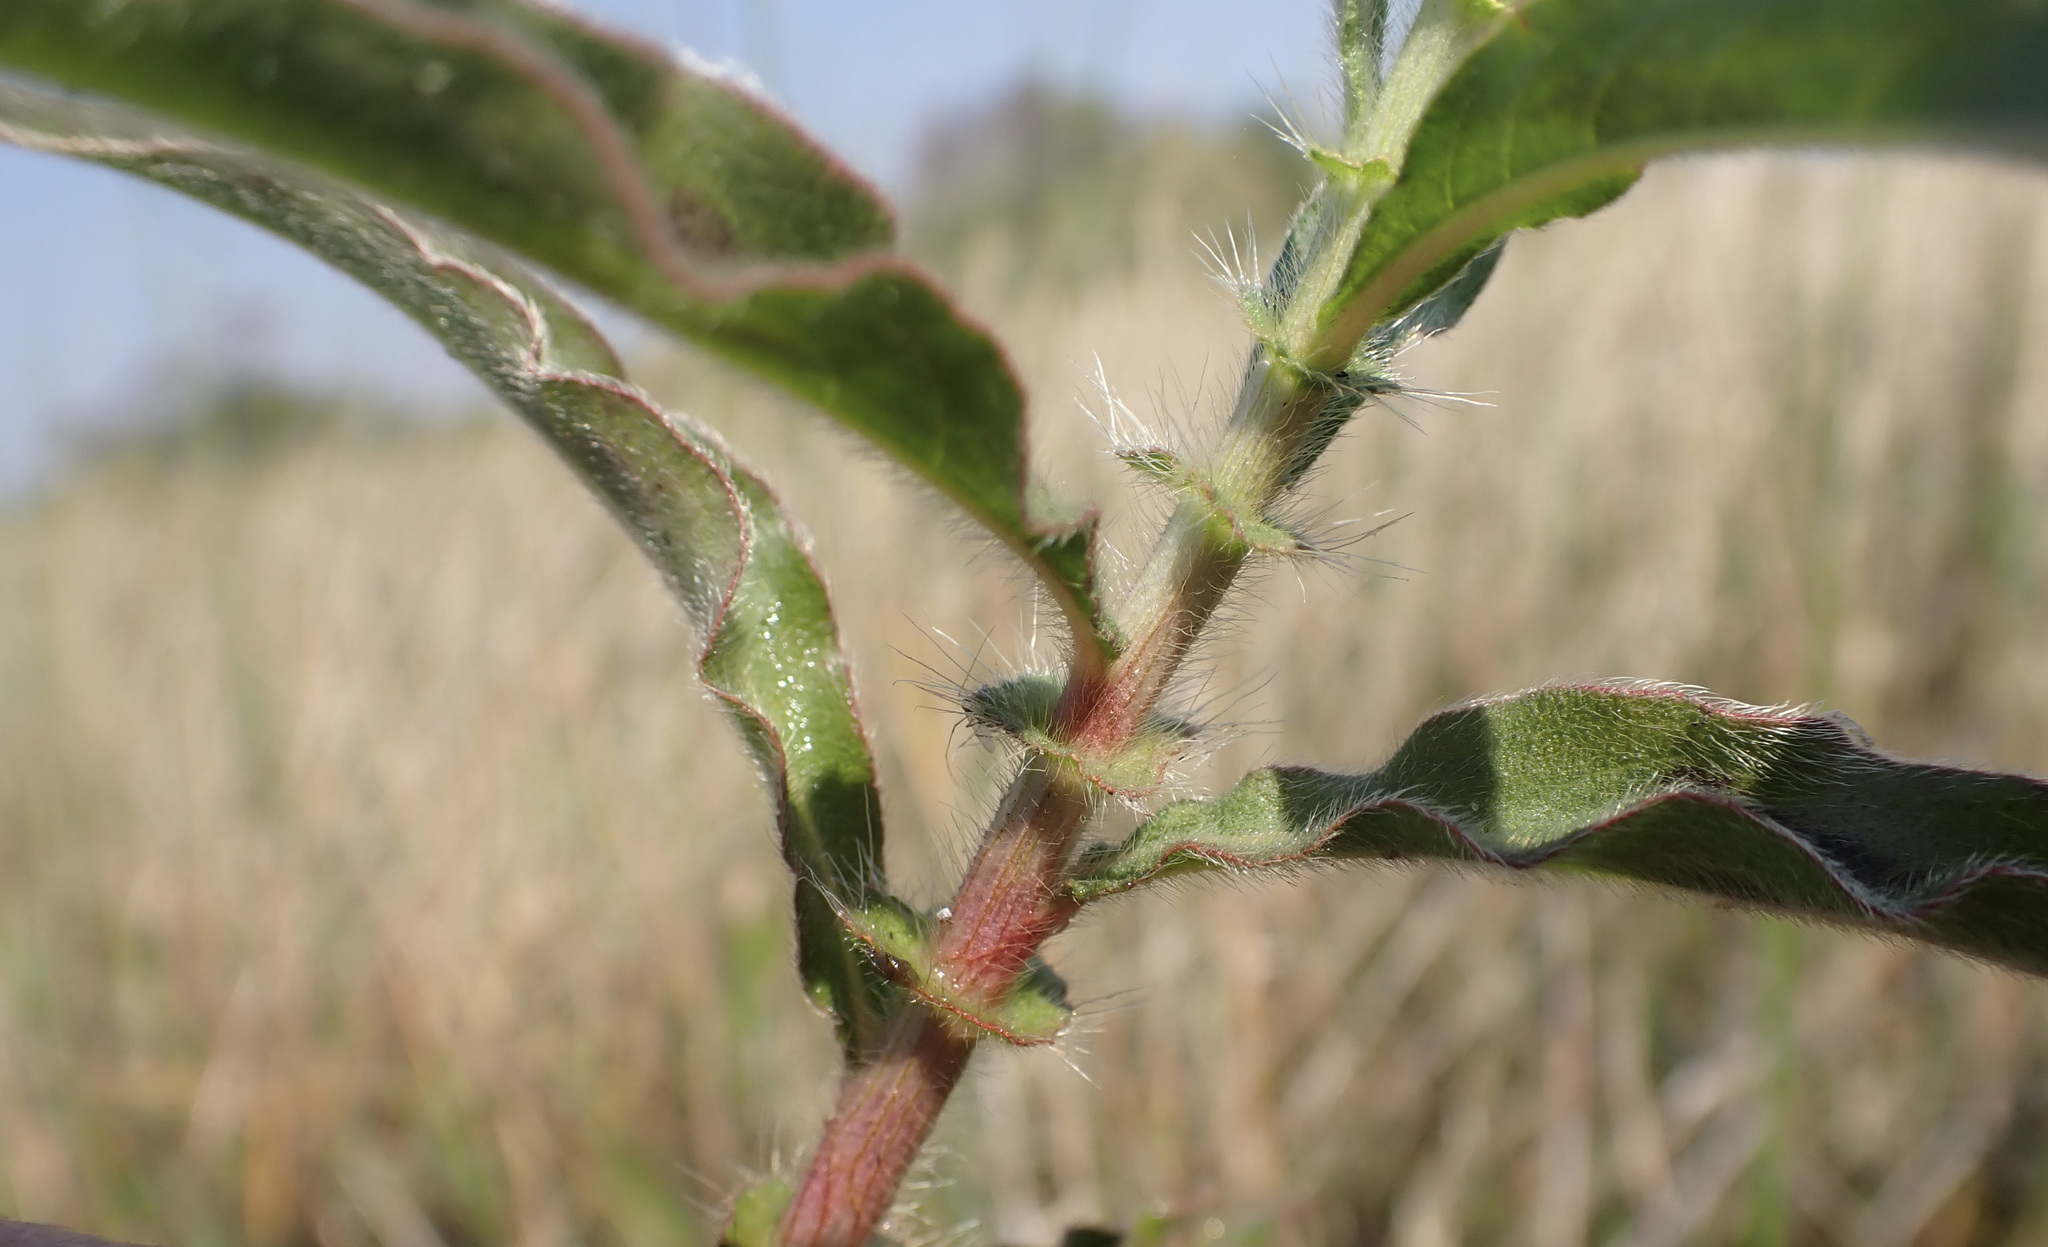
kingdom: Plantae
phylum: Tracheophyta
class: Magnoliopsida
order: Caryophyllales
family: Polygonaceae
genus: Persicaria
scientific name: Persicaria limbata
